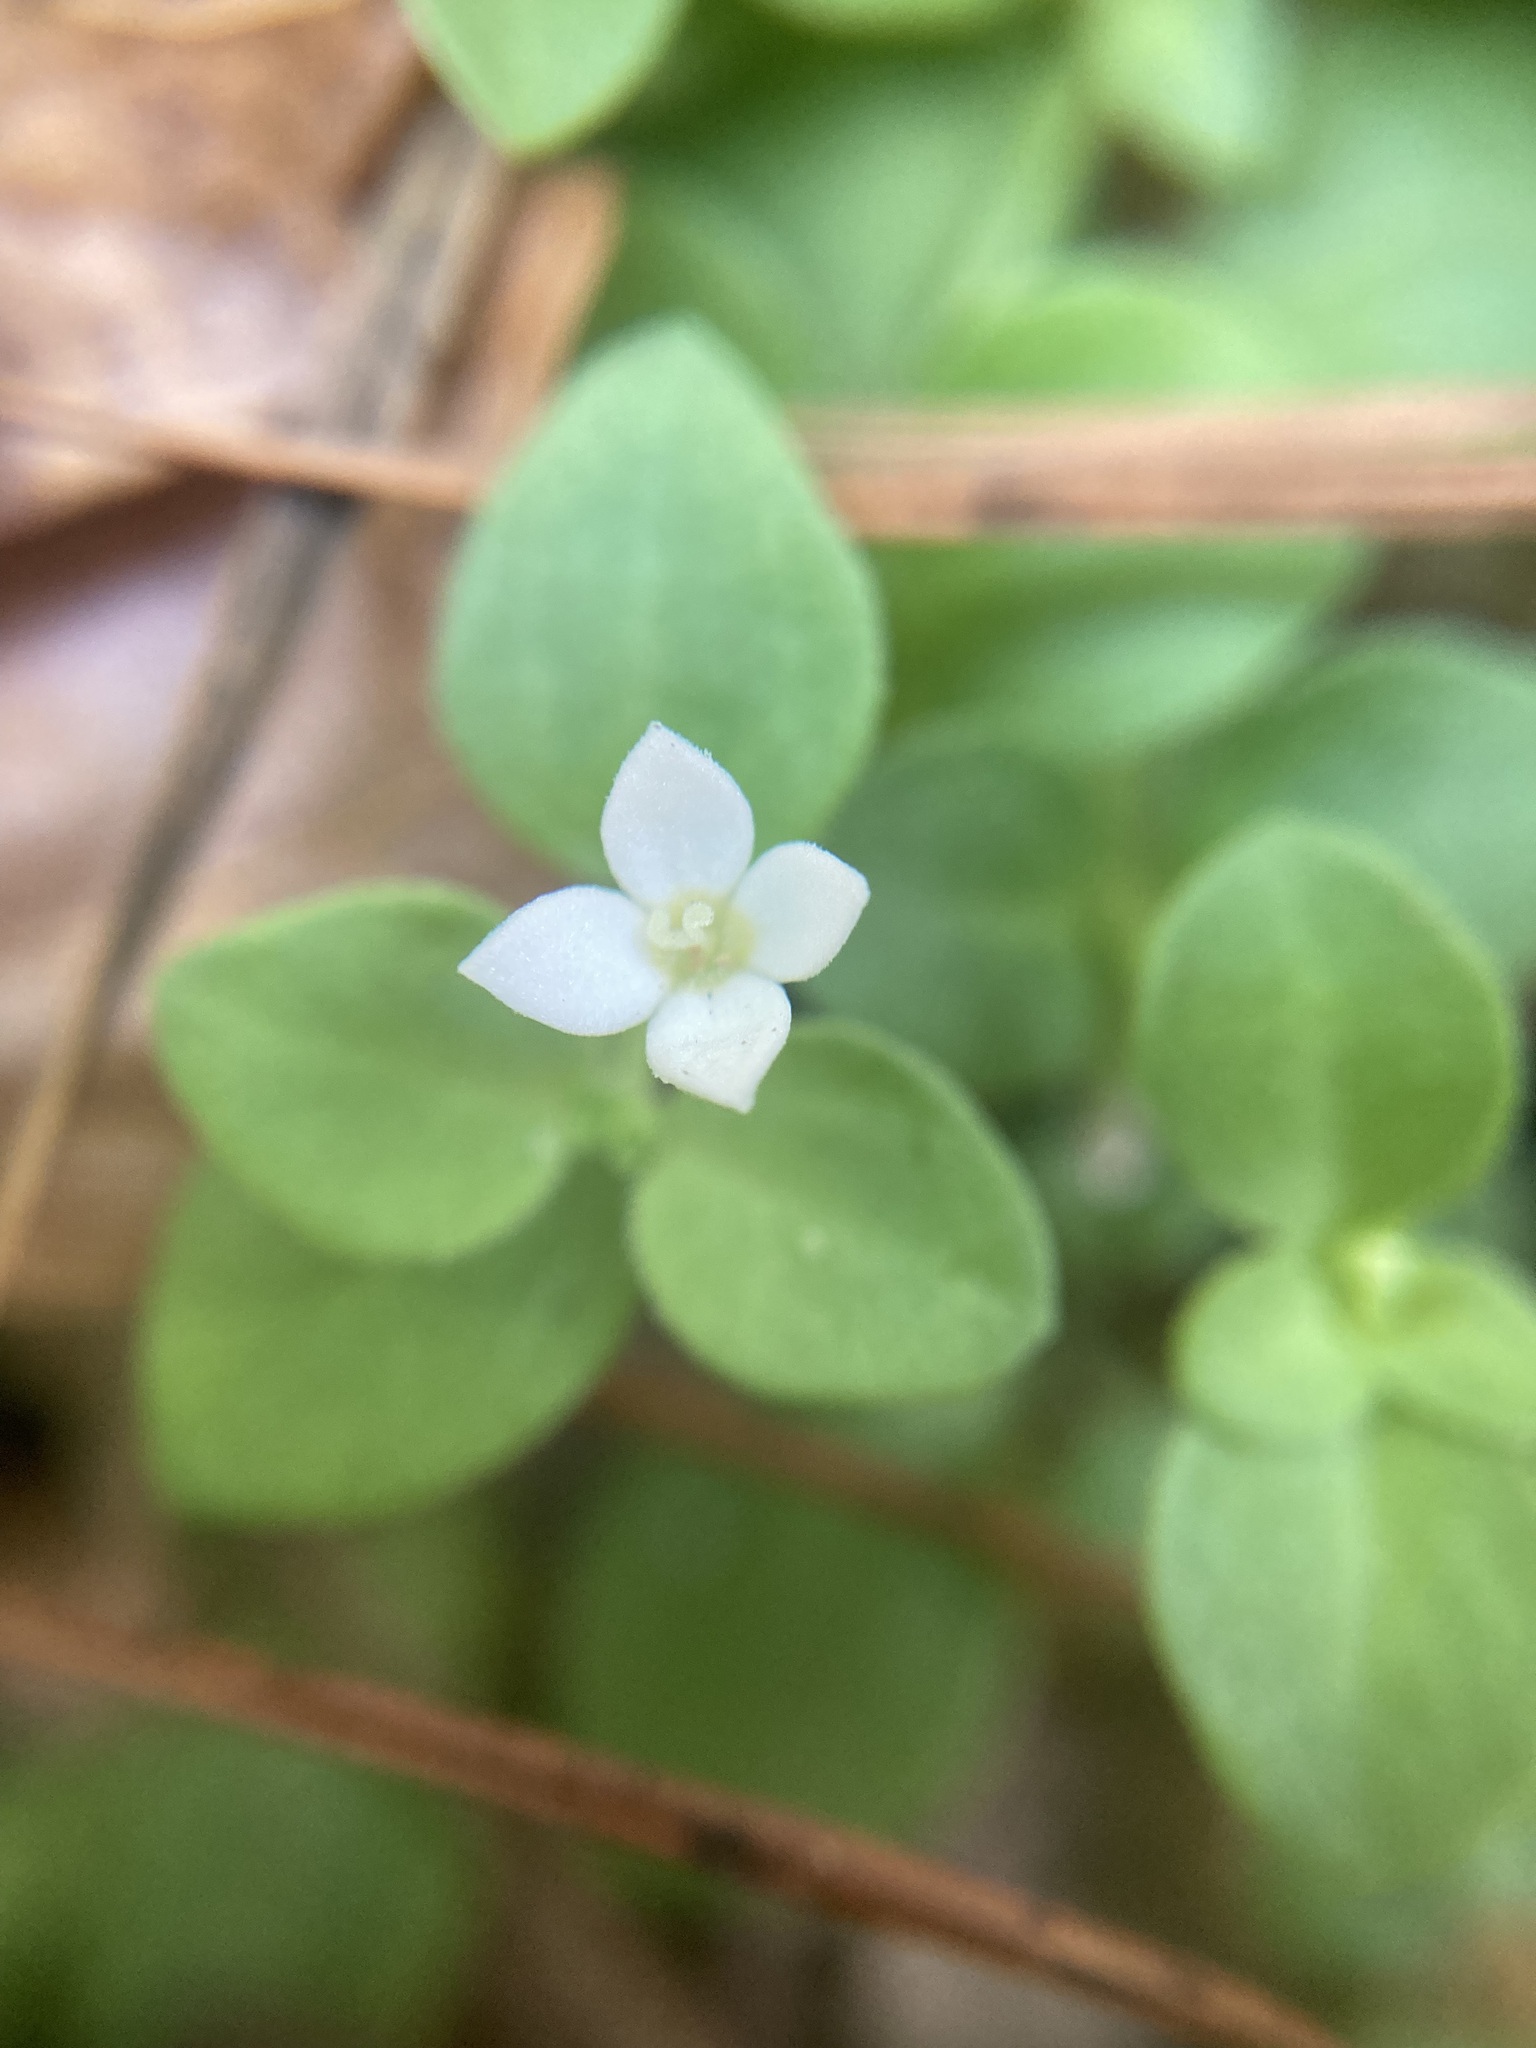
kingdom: Plantae
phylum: Tracheophyta
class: Magnoliopsida
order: Gentianales
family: Rubiaceae
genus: Houstonia
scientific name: Houstonia procumbens
